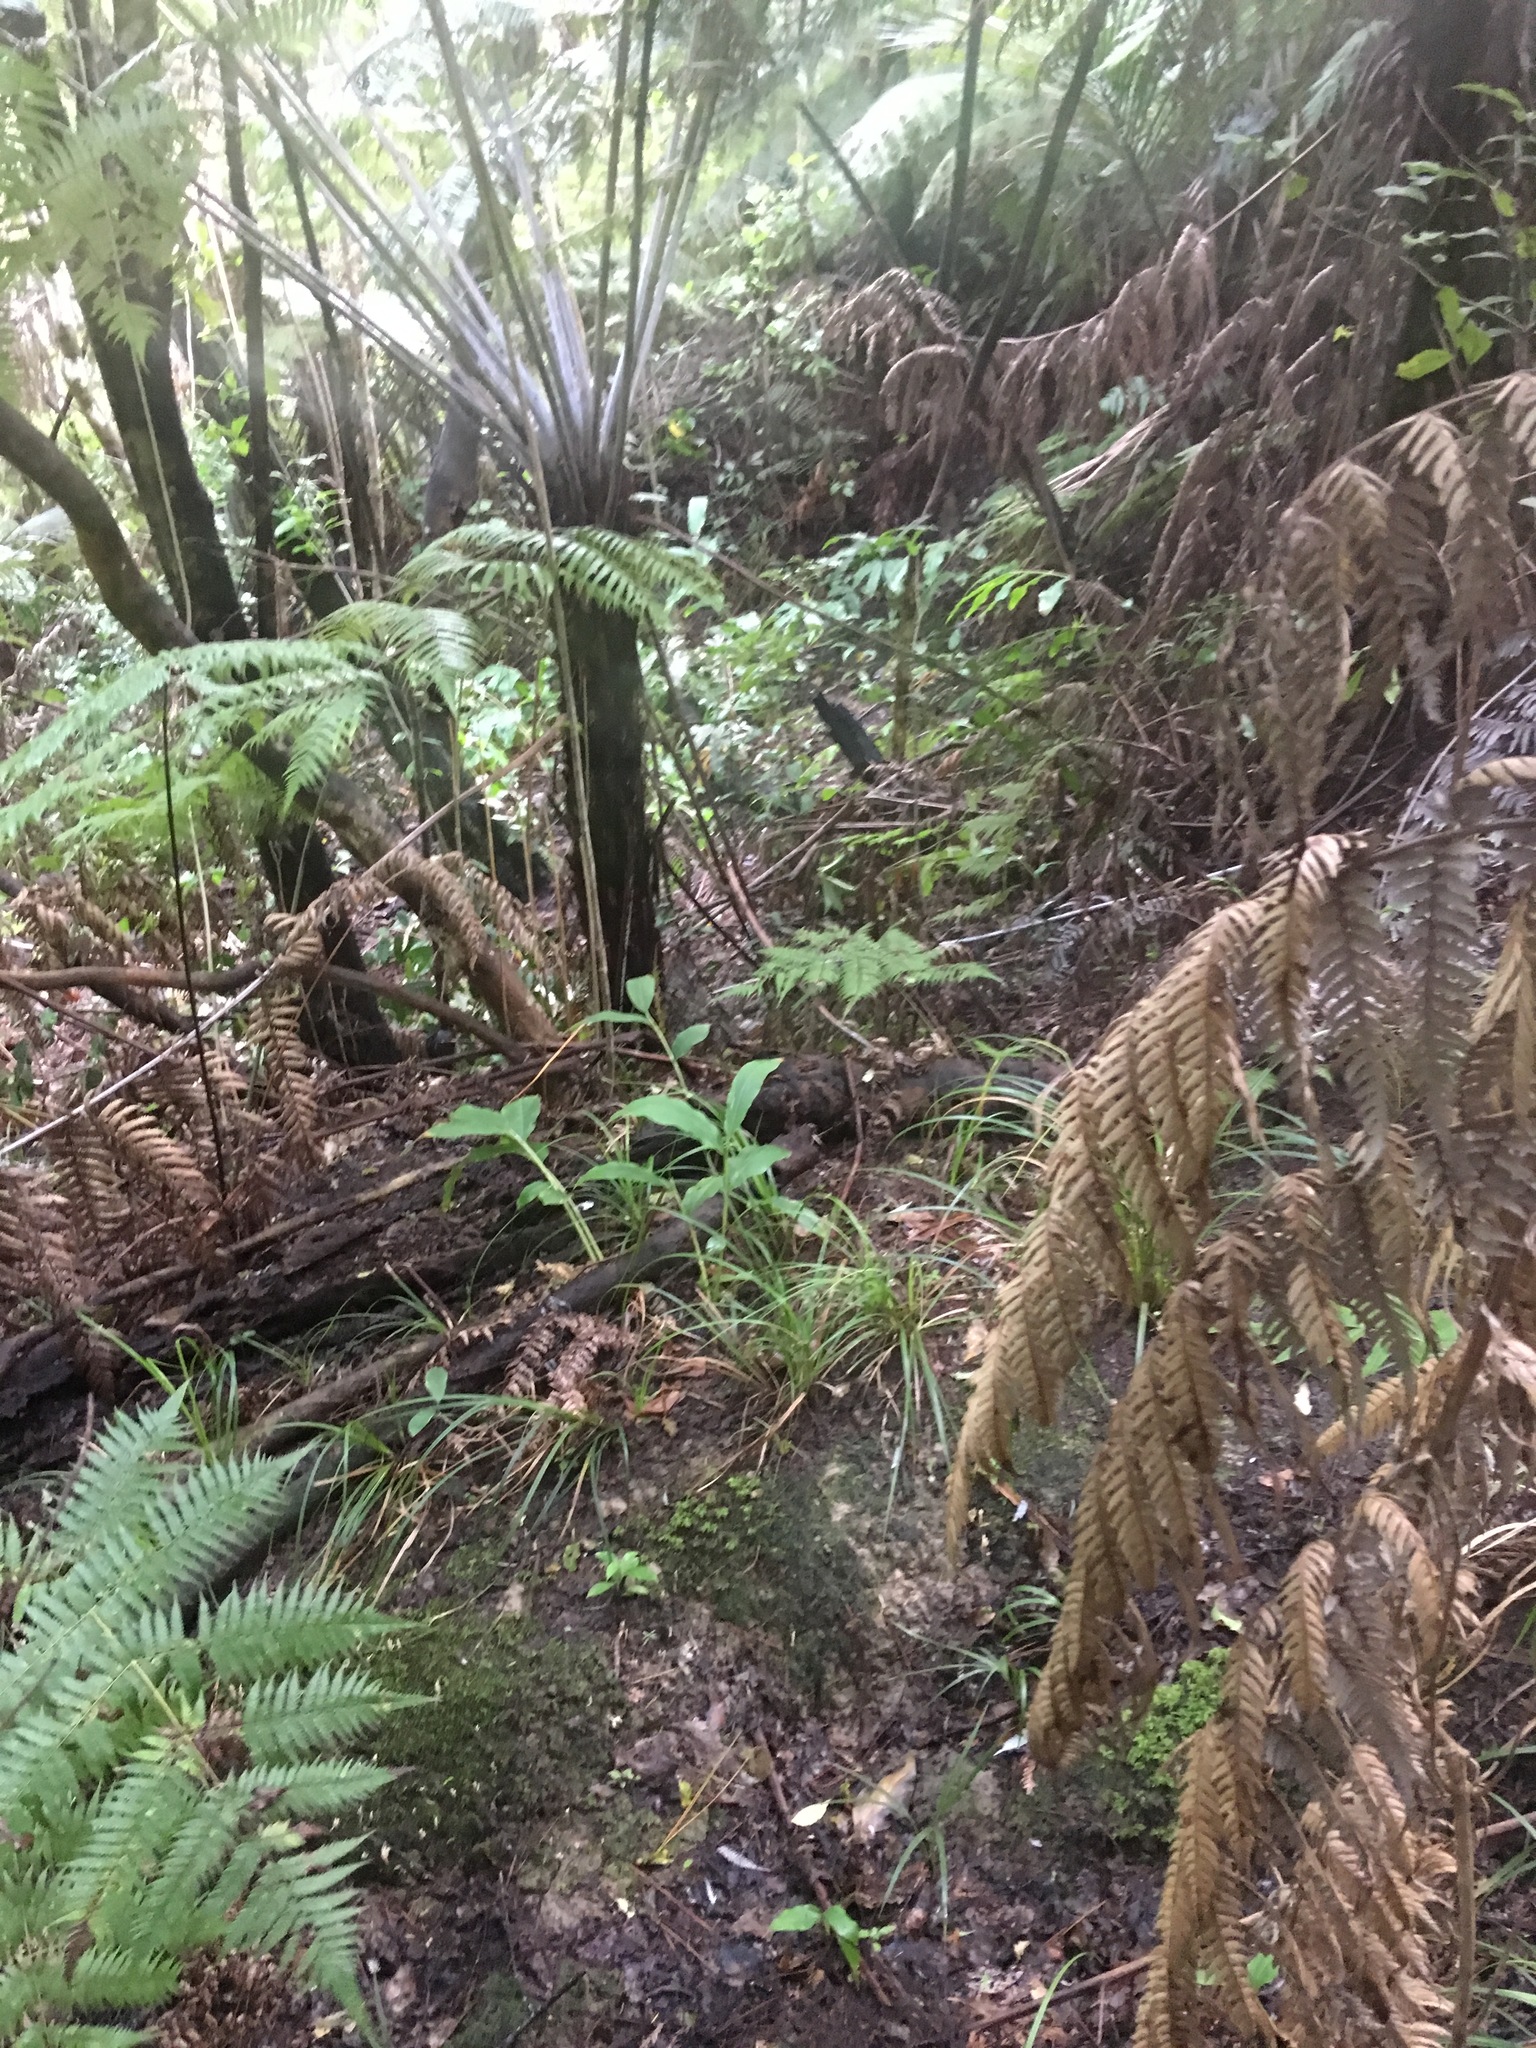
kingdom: Plantae
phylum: Tracheophyta
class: Liliopsida
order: Zingiberales
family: Zingiberaceae
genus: Hedychium
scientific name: Hedychium gardnerianum
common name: Himalayan ginger
